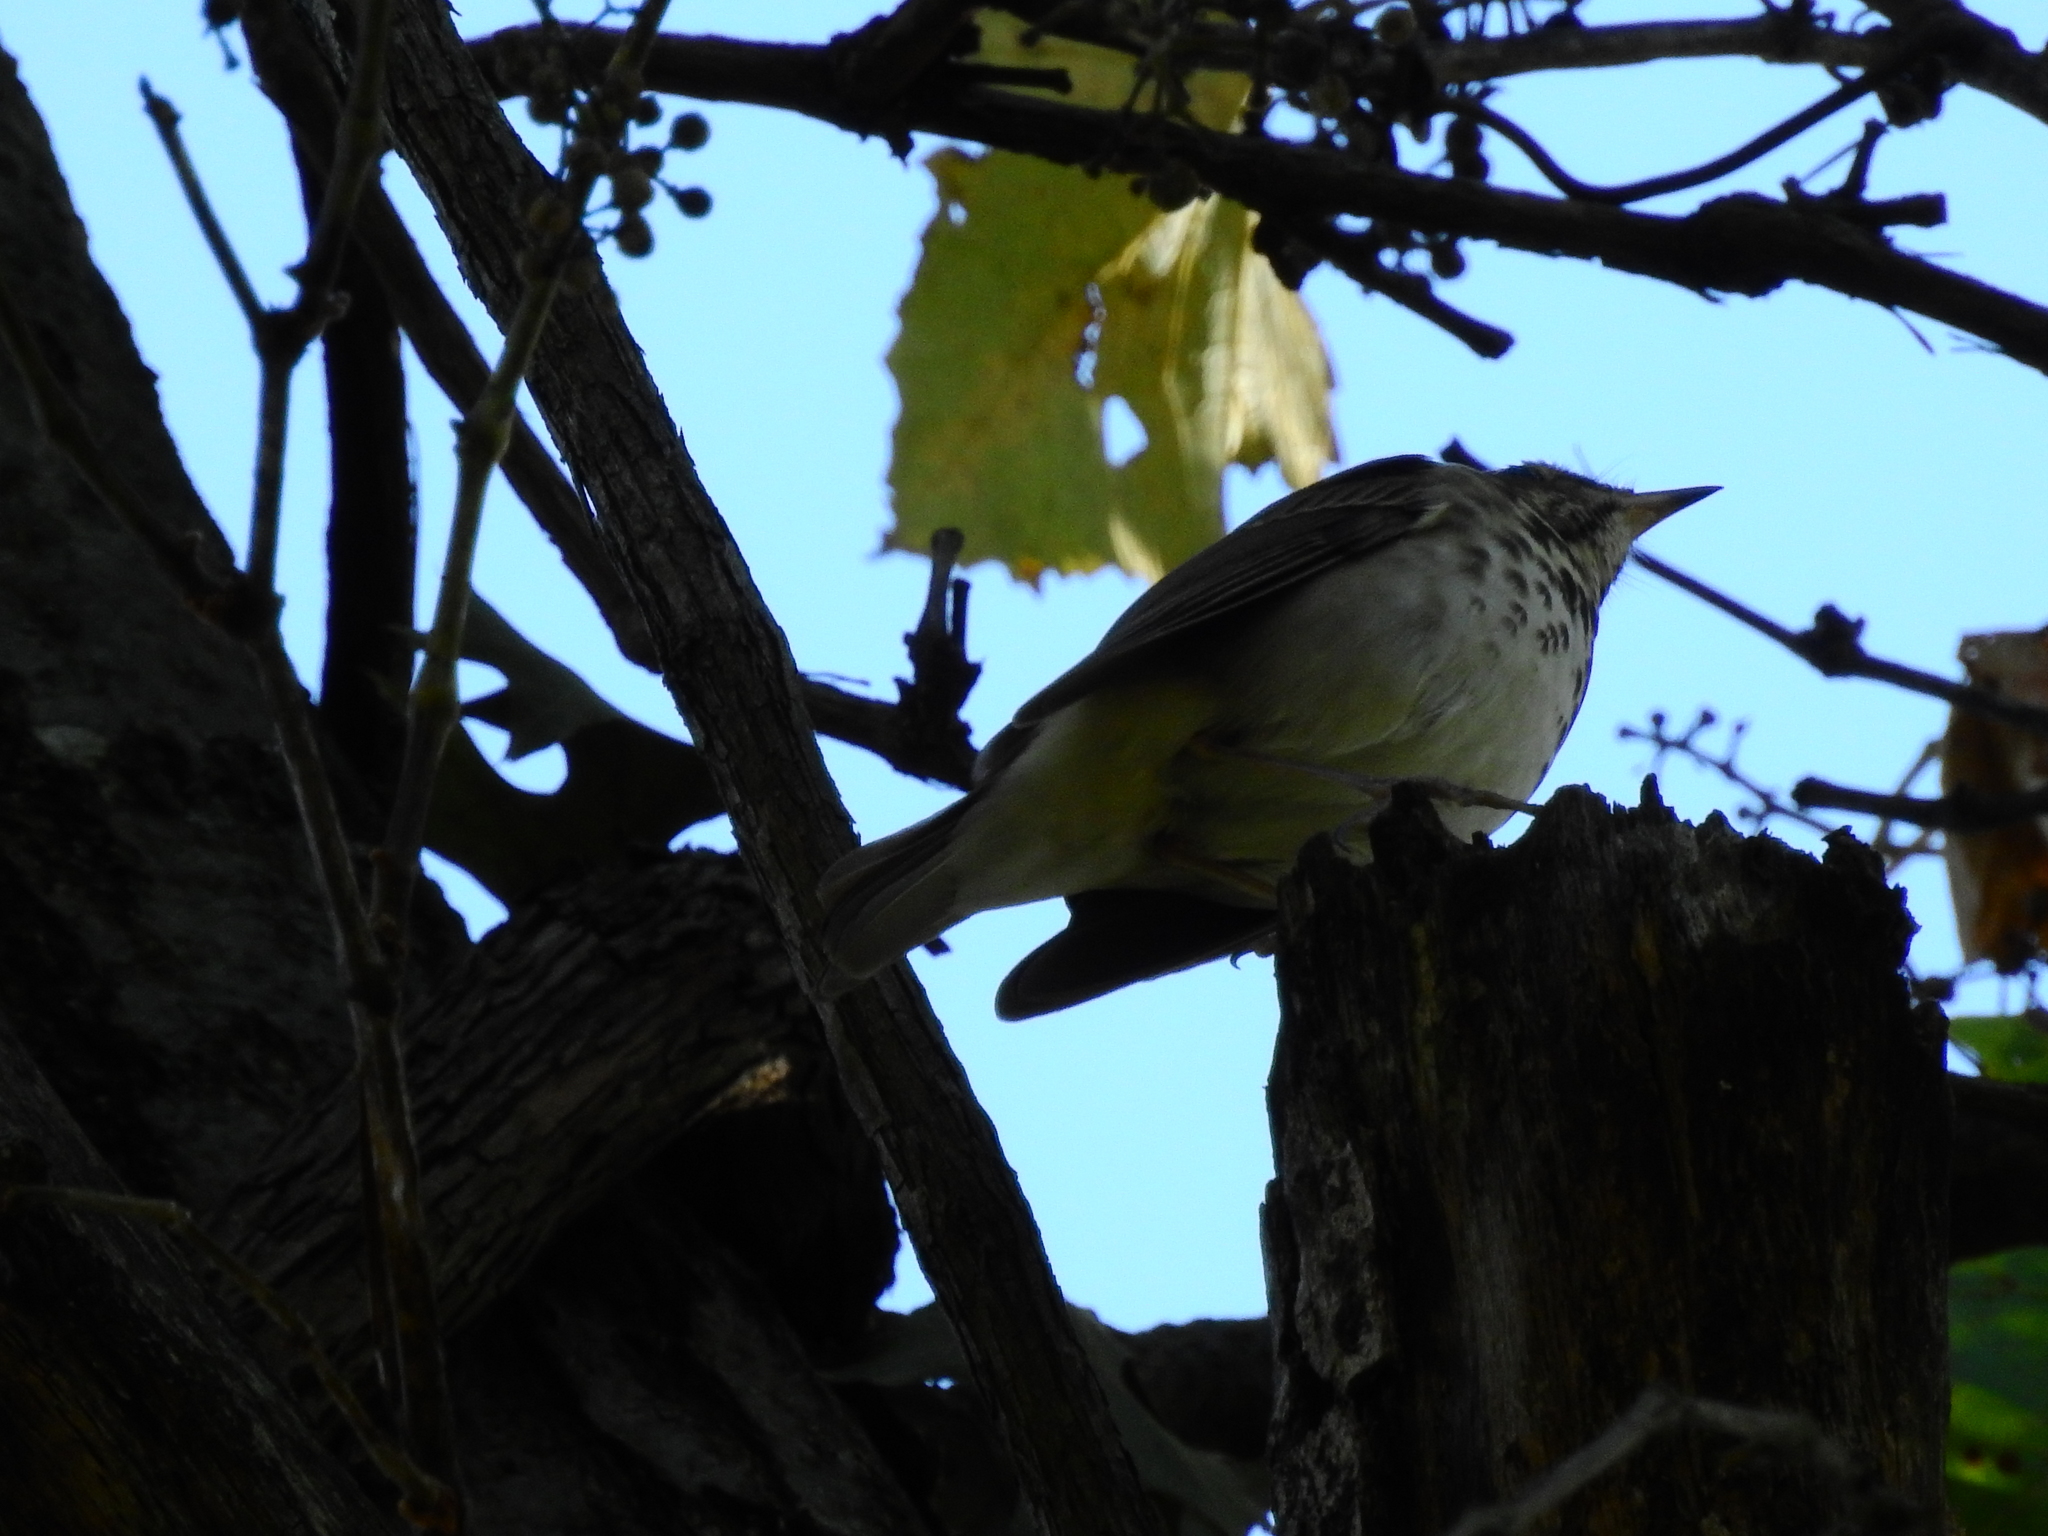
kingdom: Animalia
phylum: Chordata
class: Aves
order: Passeriformes
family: Turdidae
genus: Catharus
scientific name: Catharus guttatus
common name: Hermit thrush
